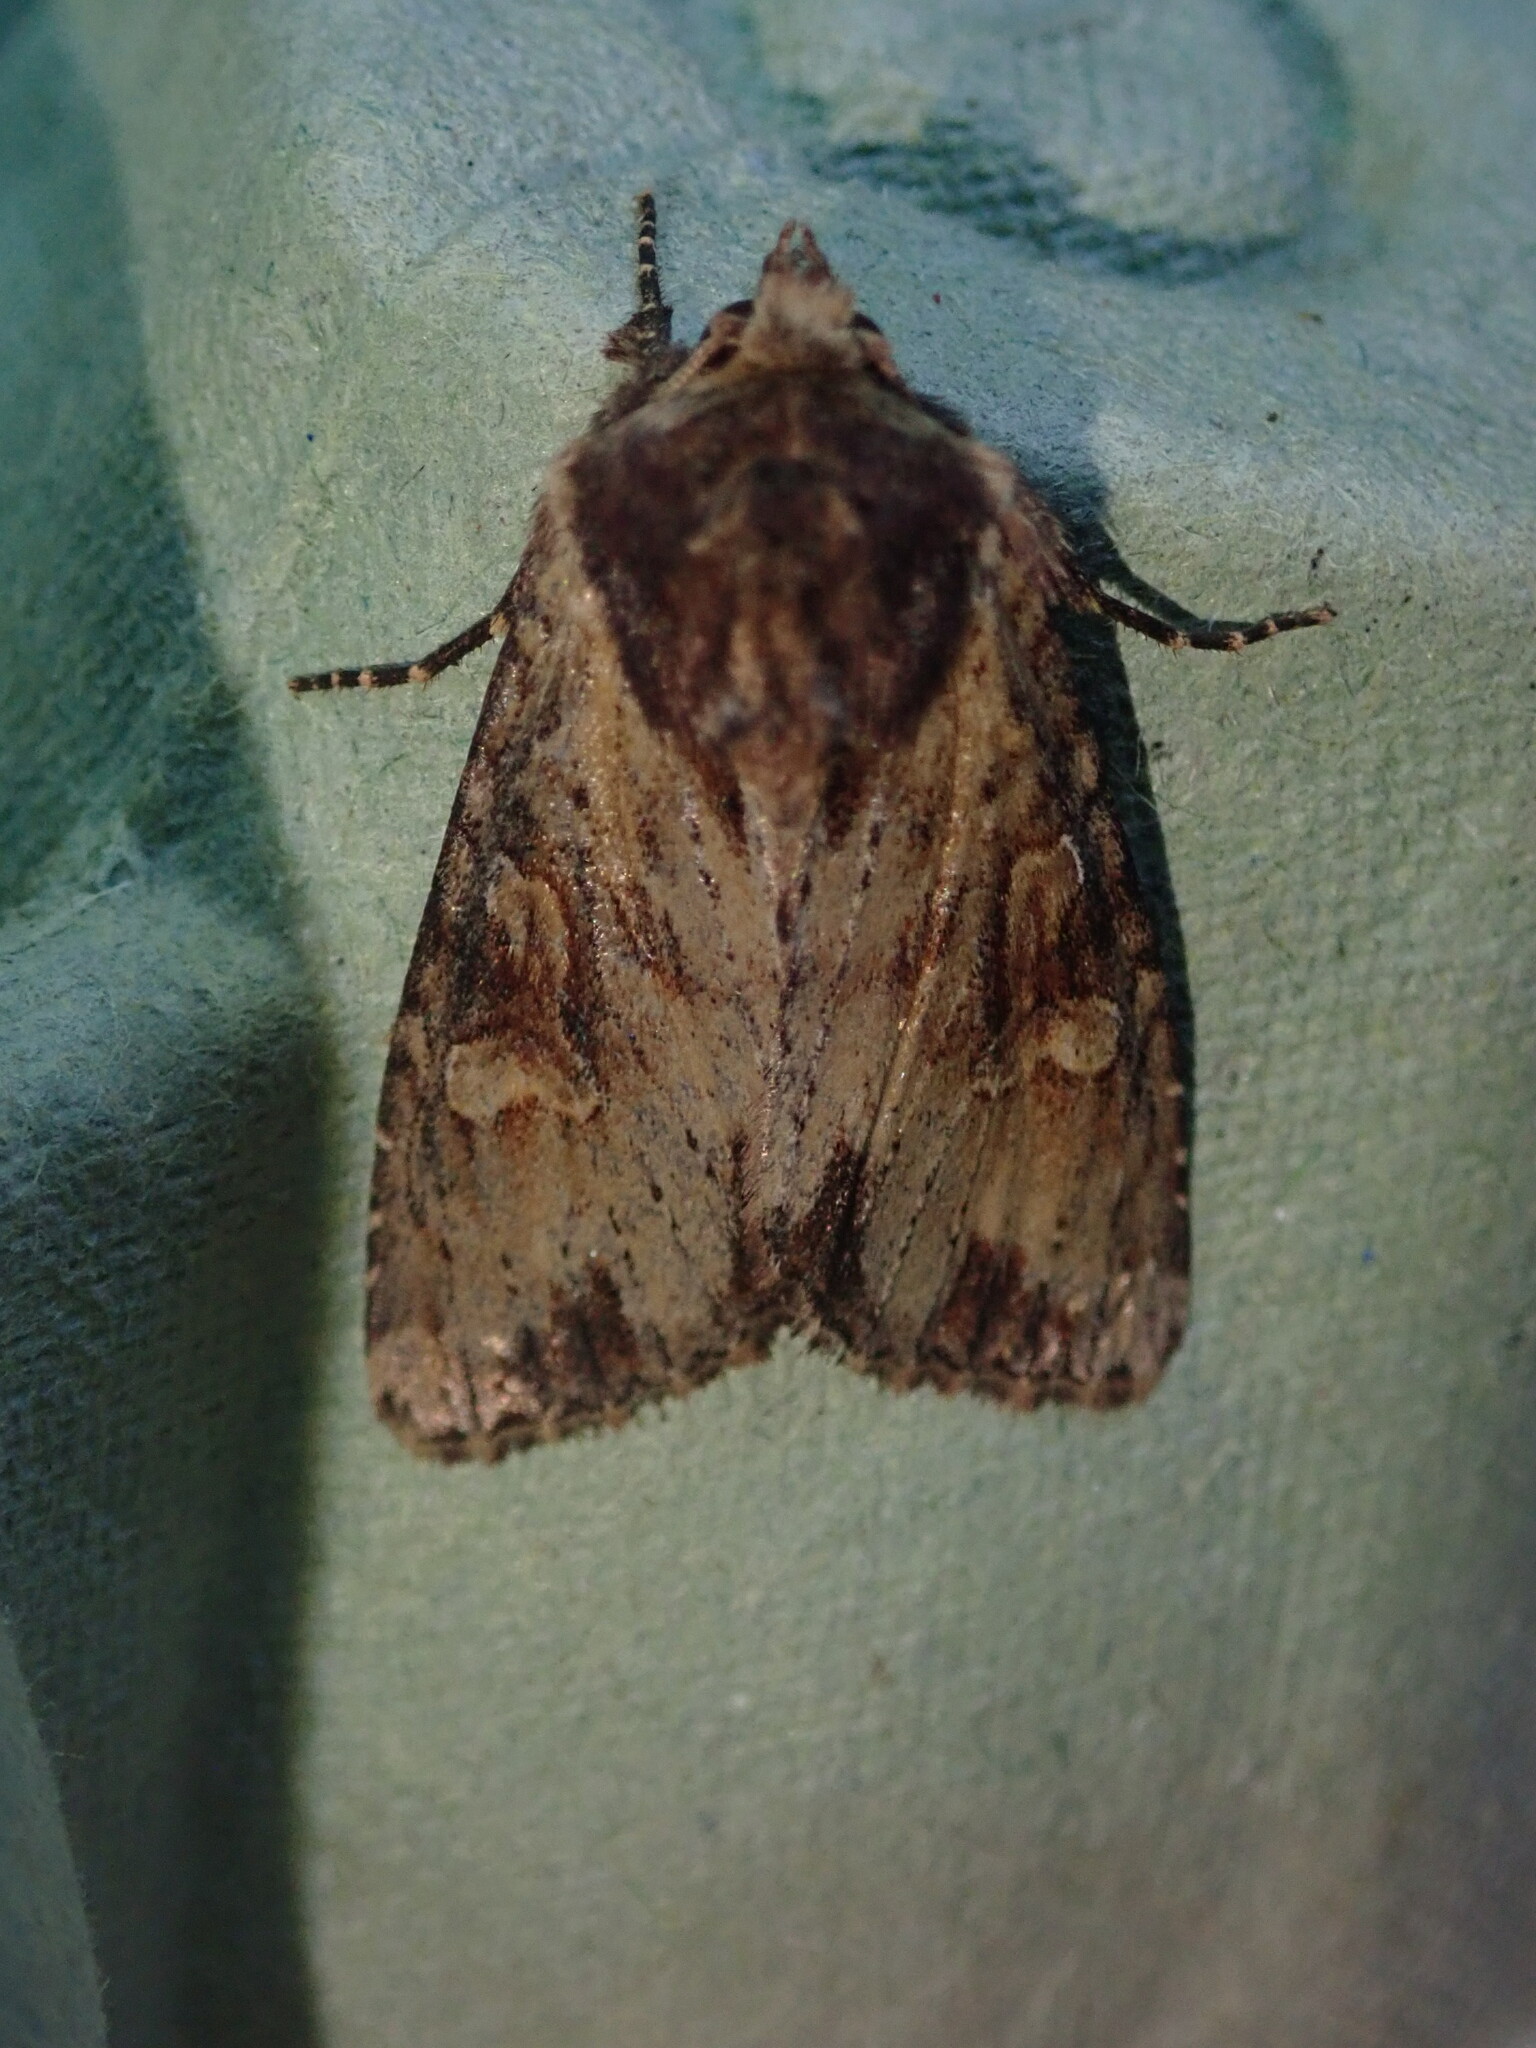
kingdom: Animalia
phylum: Arthropoda
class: Insecta
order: Lepidoptera
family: Noctuidae
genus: Apamea
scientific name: Apamea crenata
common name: Clouded-bordered brindle
